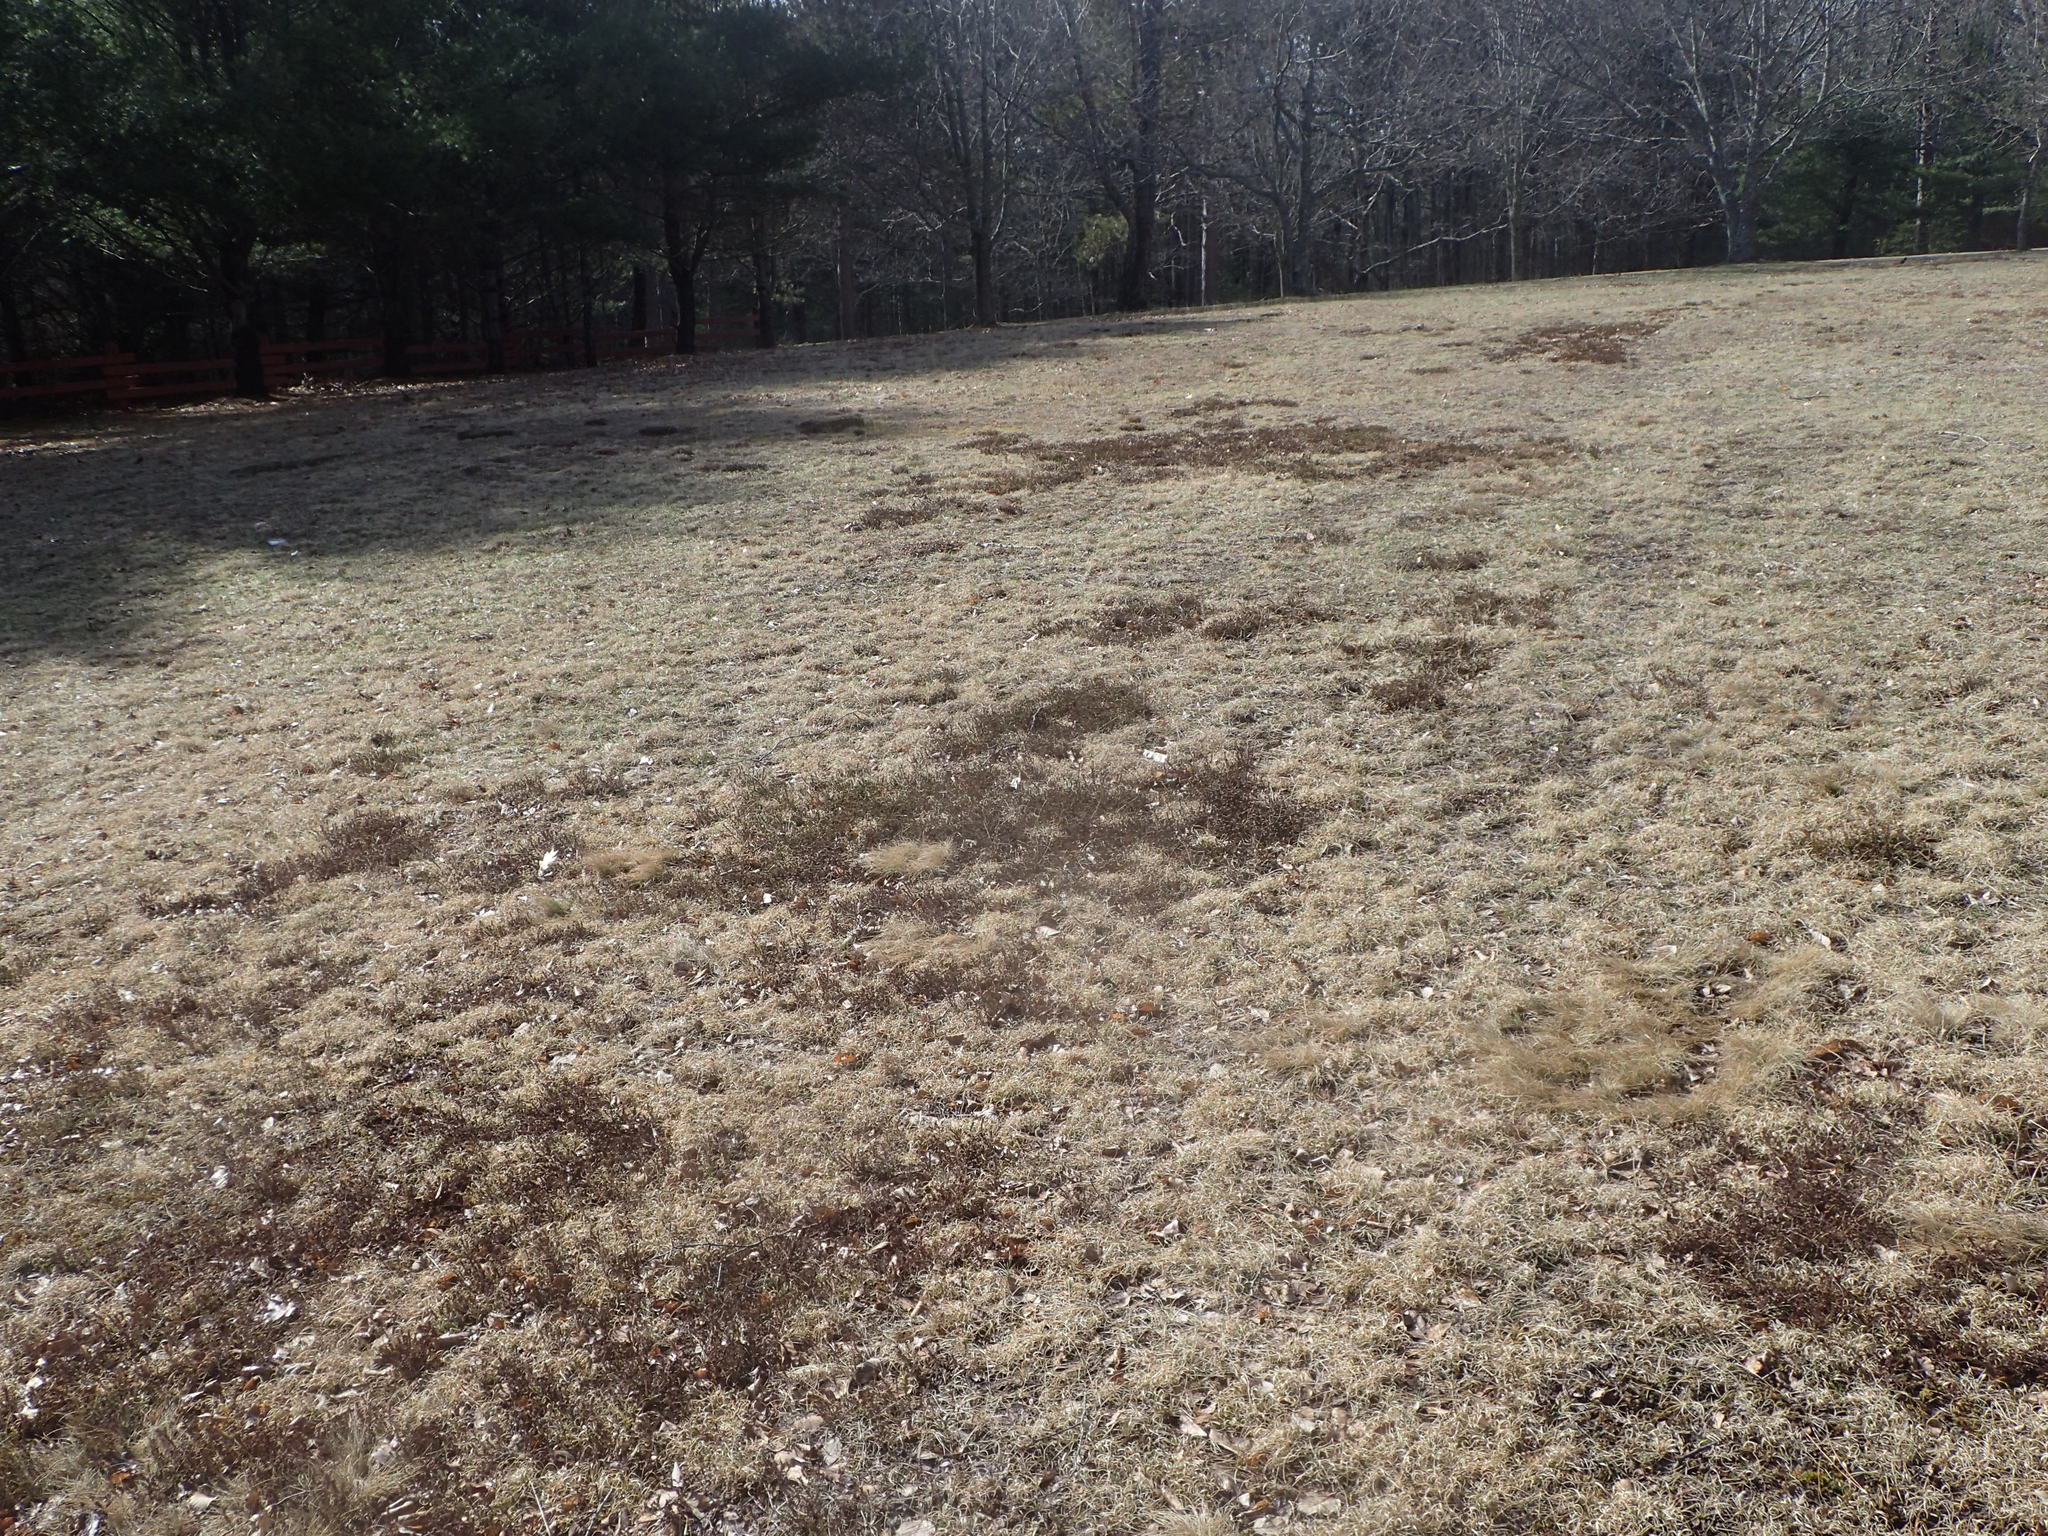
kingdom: Plantae
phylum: Tracheophyta
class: Magnoliopsida
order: Ericales
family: Ericaceae
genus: Corema
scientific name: Corema conradii
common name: Broom-crowberry
